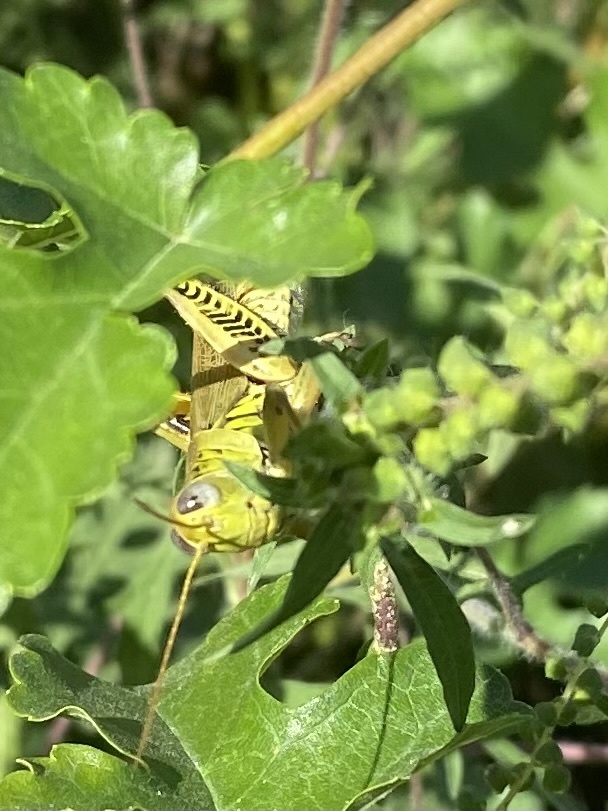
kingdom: Animalia
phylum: Arthropoda
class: Insecta
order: Orthoptera
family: Acrididae
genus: Melanoplus
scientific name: Melanoplus differentialis
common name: Differential grasshopper
